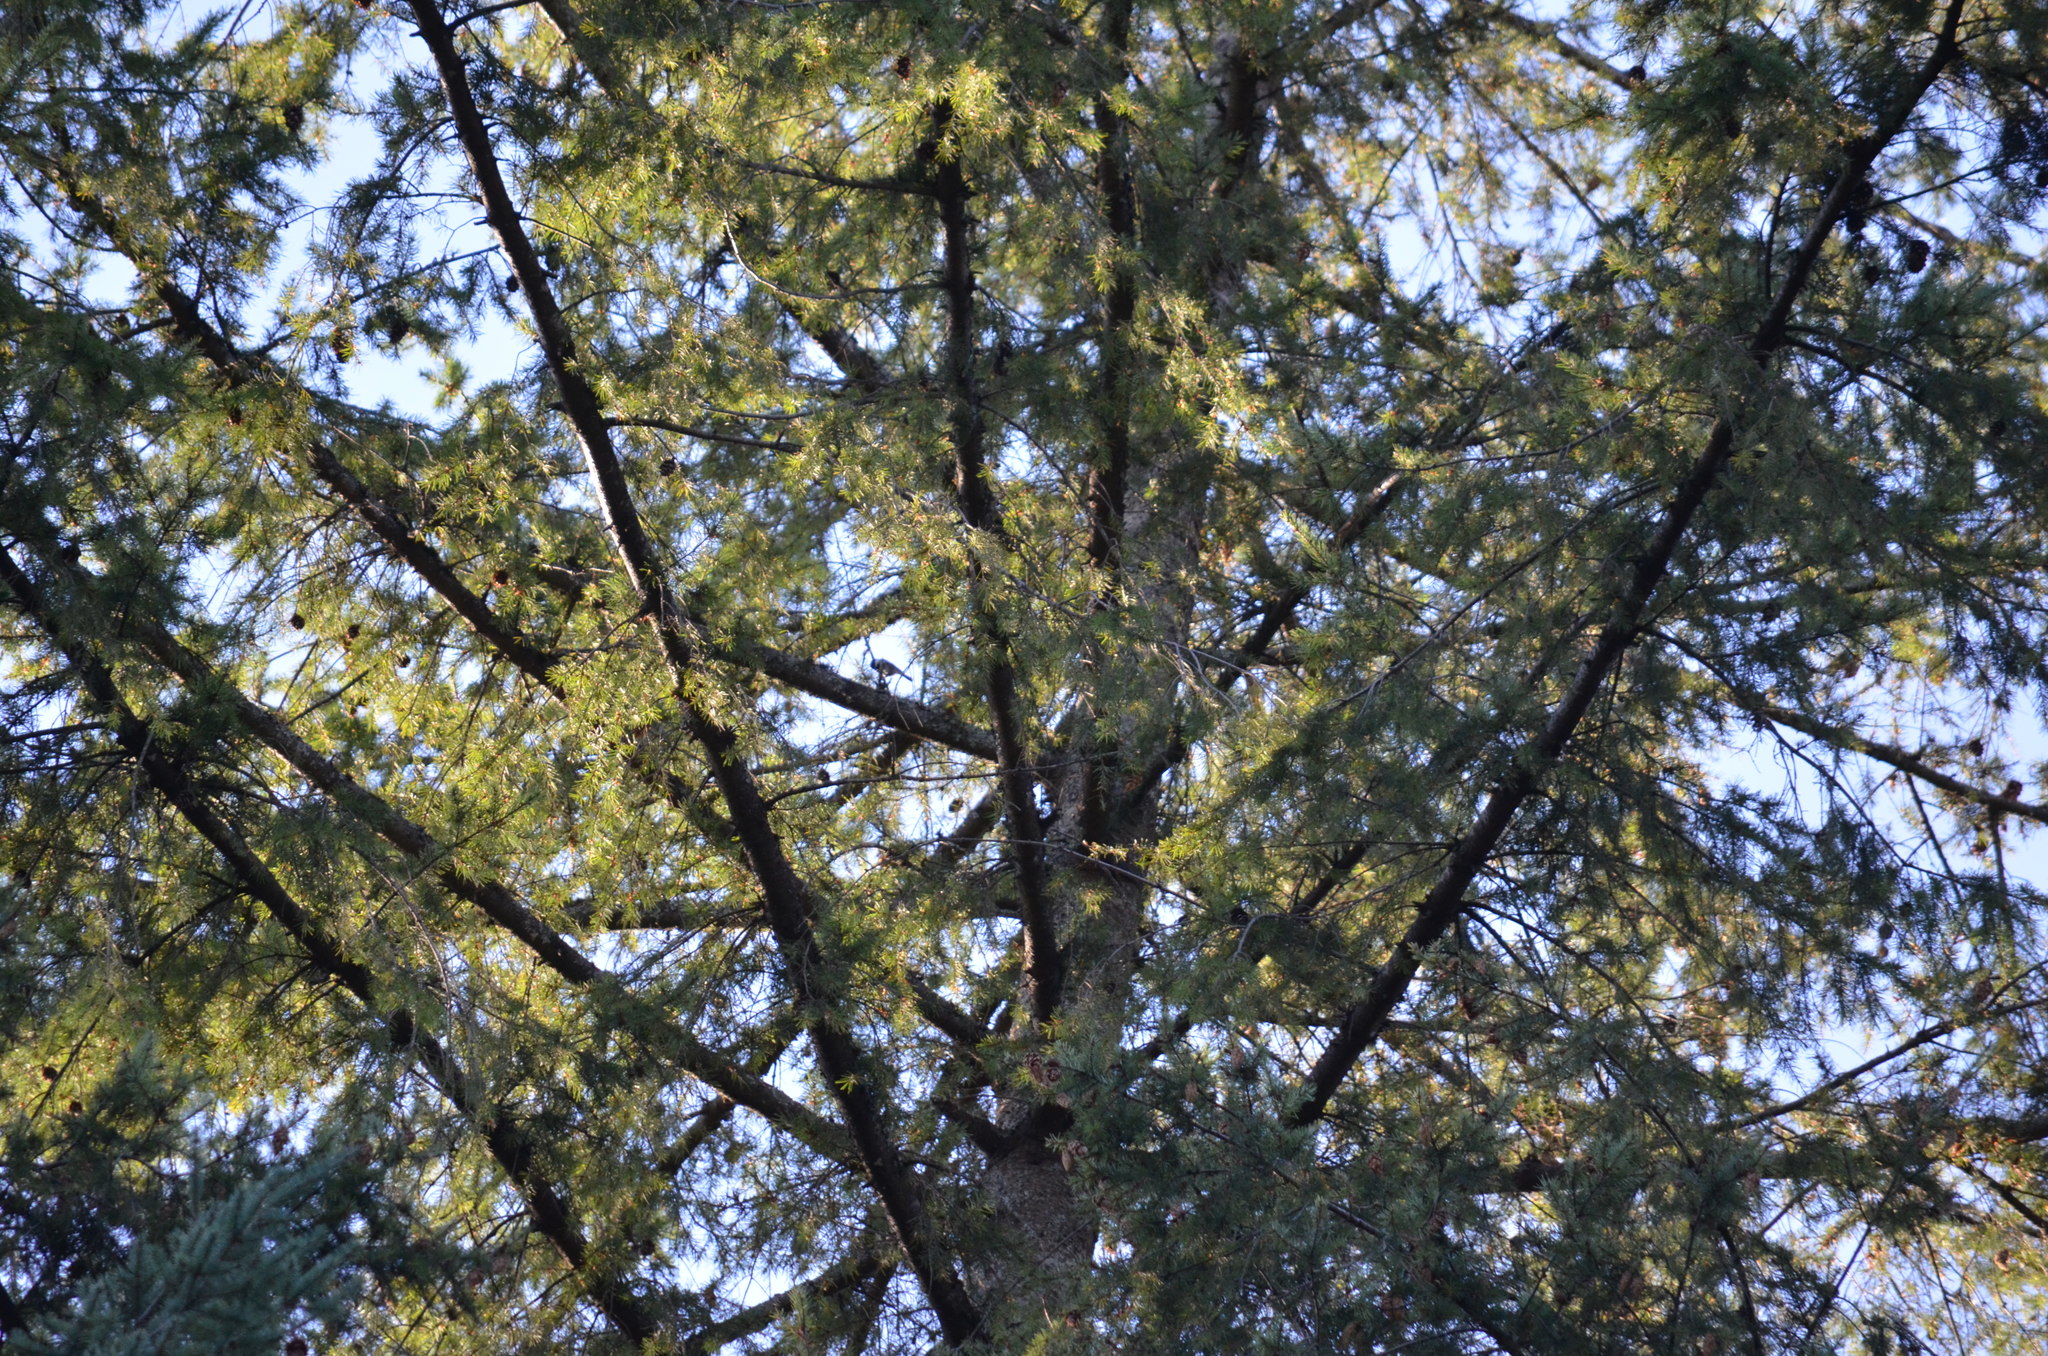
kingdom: Animalia
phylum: Chordata
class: Aves
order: Passeriformes
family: Paridae
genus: Poecile
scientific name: Poecile atricapillus
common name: Black-capped chickadee
